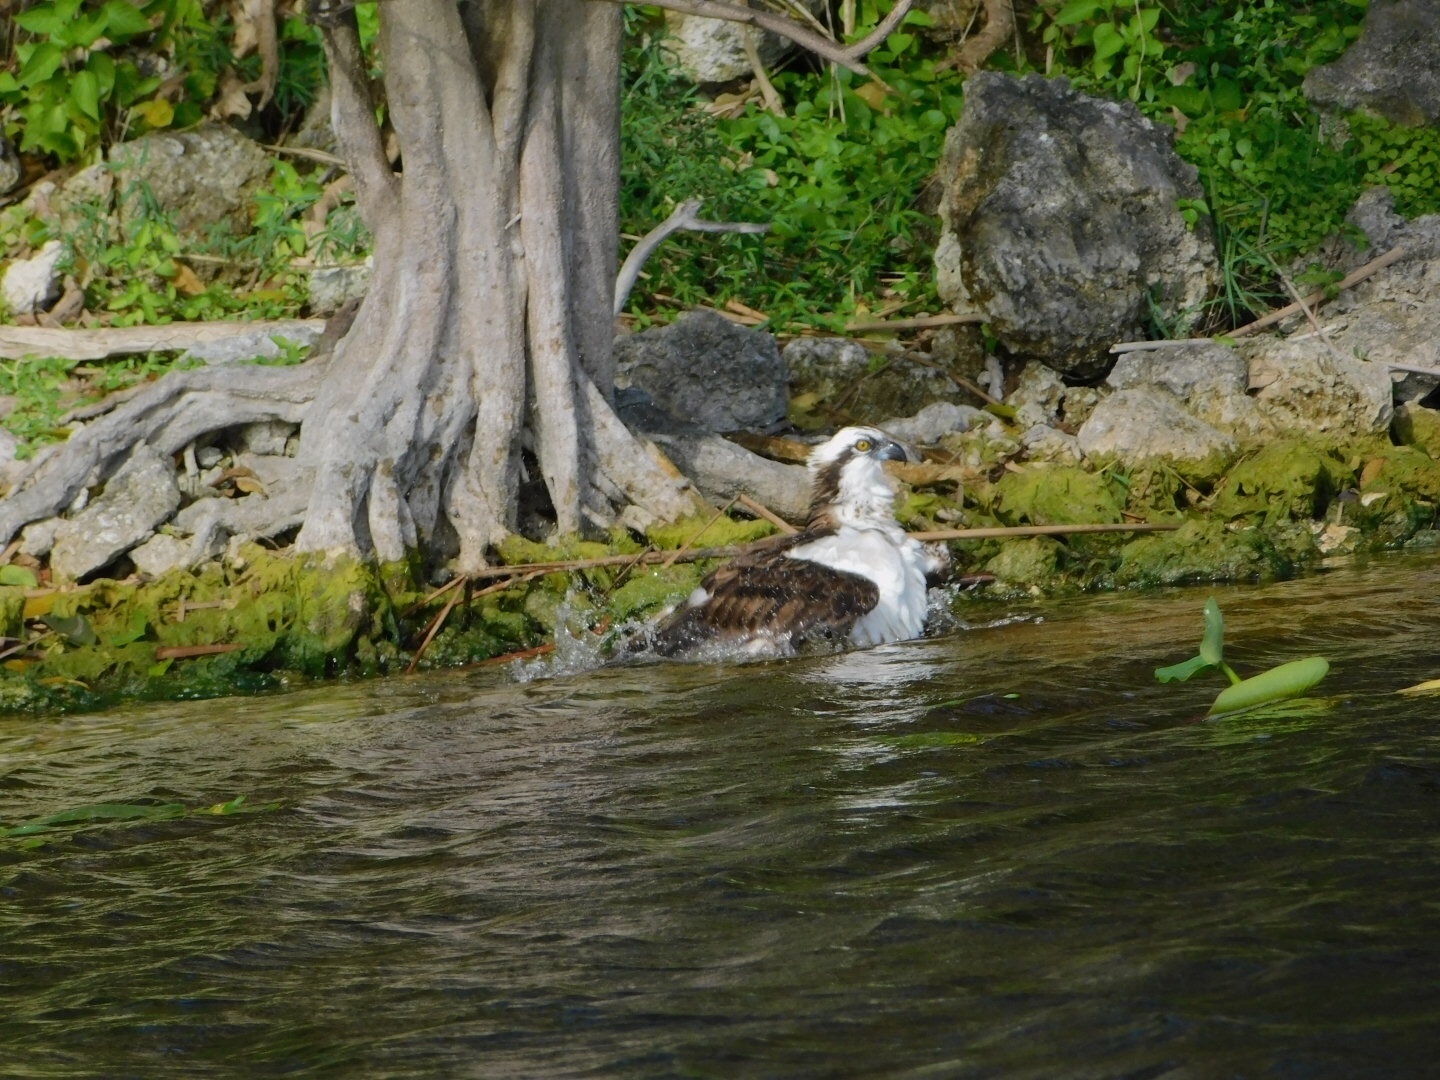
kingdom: Animalia
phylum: Chordata
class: Aves
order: Accipitriformes
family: Pandionidae
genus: Pandion
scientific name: Pandion haliaetus
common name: Osprey
